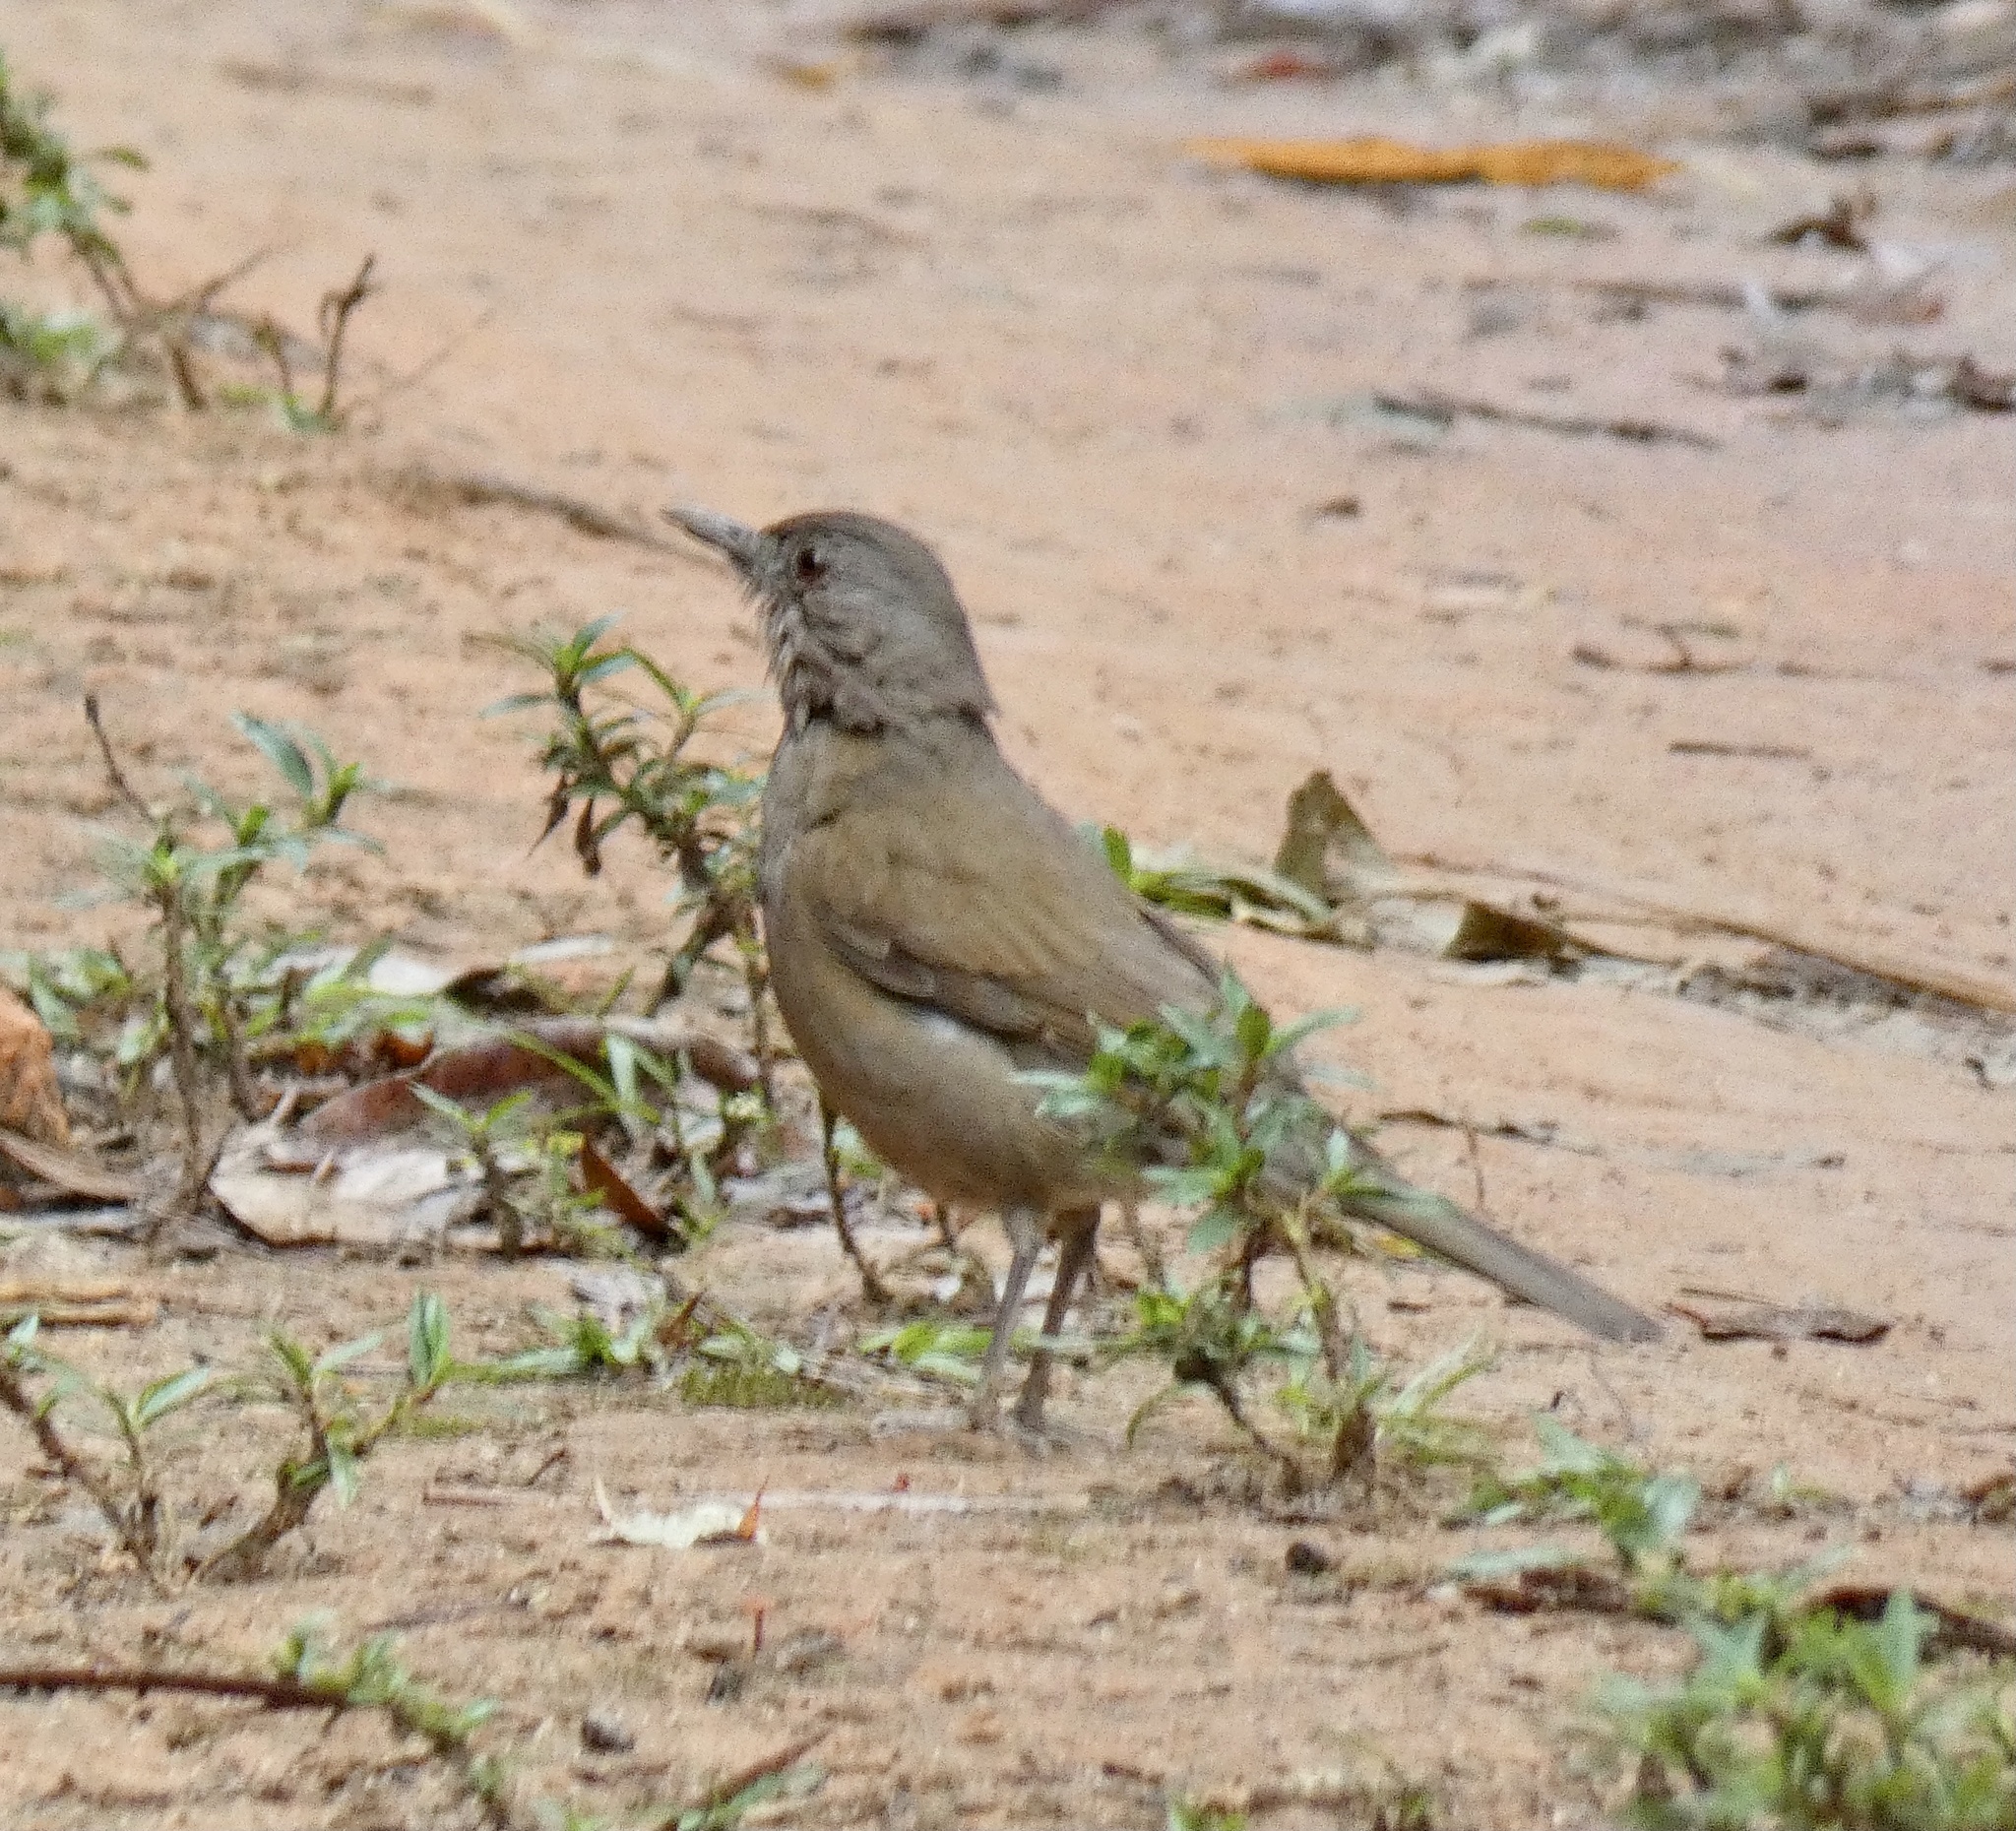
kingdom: Animalia
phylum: Chordata
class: Aves
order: Passeriformes
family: Turdidae
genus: Turdus
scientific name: Turdus leucomelas
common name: Pale-breasted thrush
